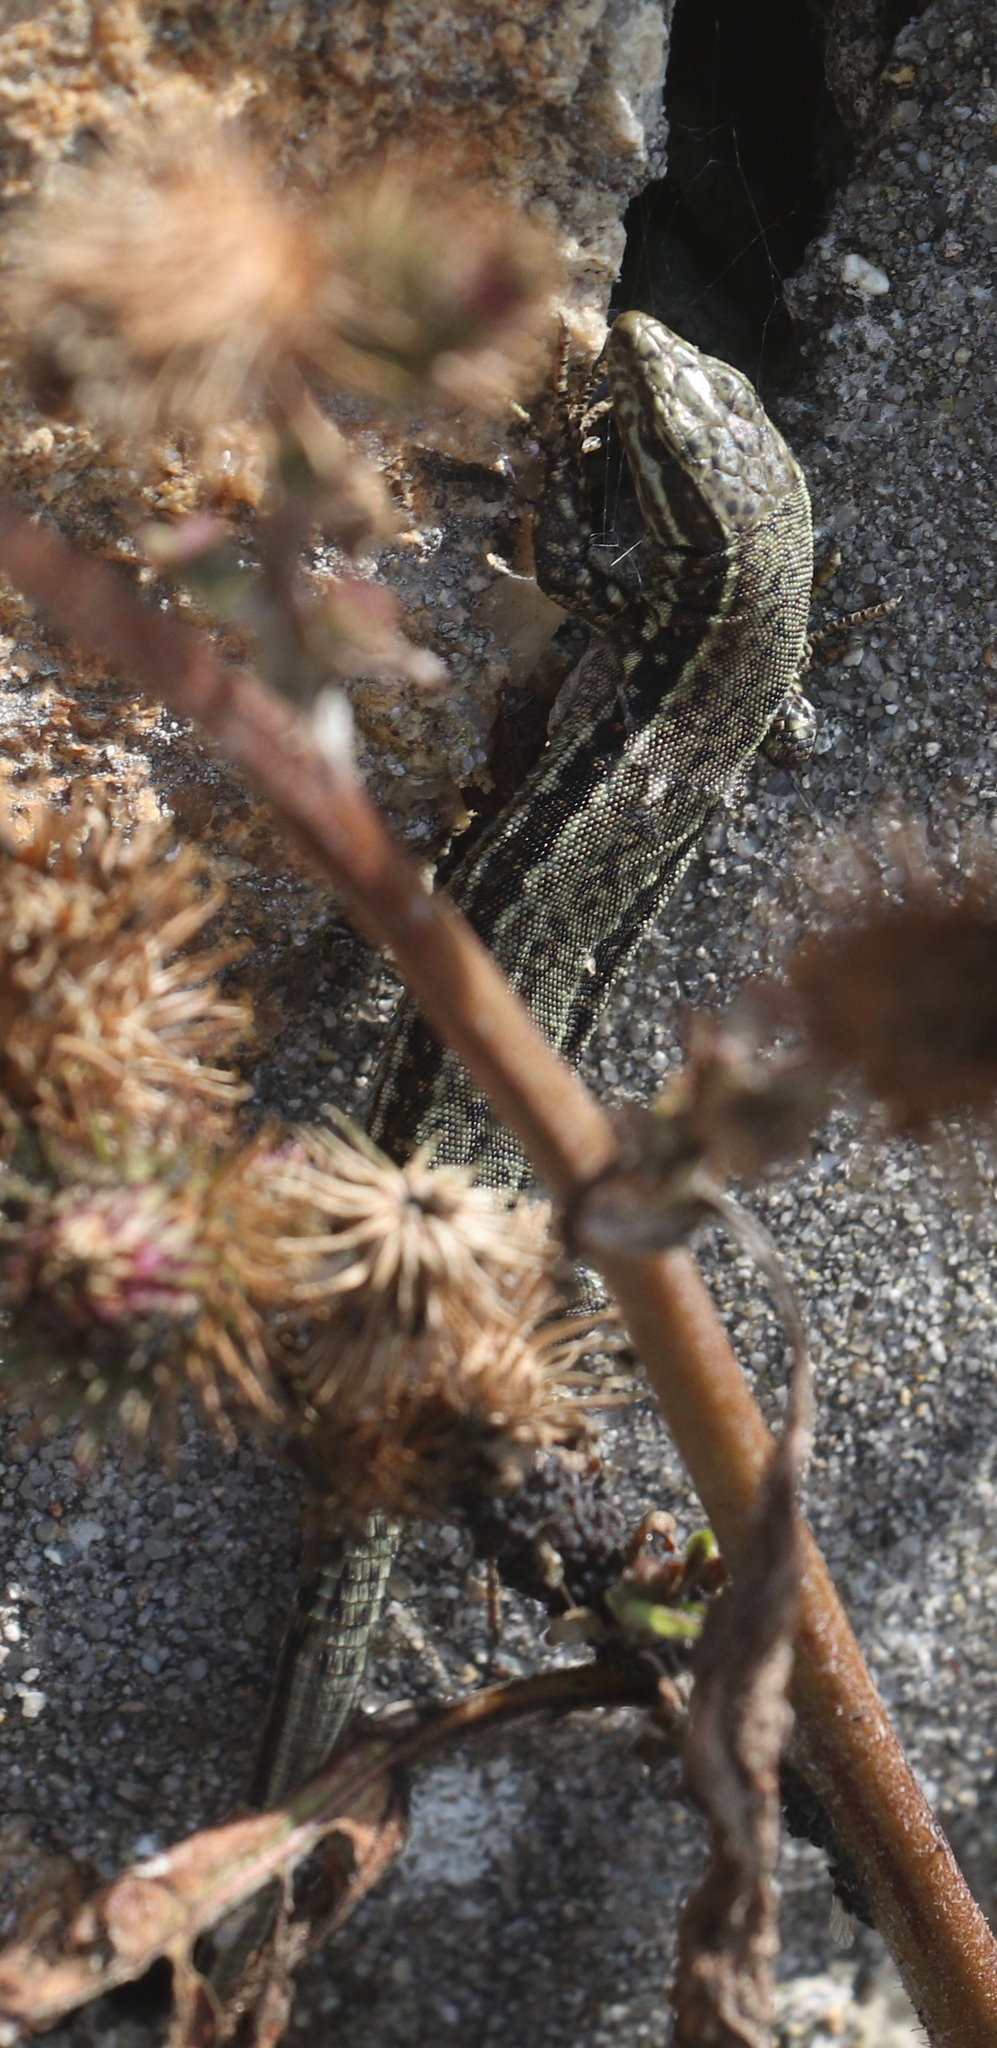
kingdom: Animalia
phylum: Chordata
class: Squamata
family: Lacertidae
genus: Podarcis
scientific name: Podarcis muralis
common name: Common wall lizard
